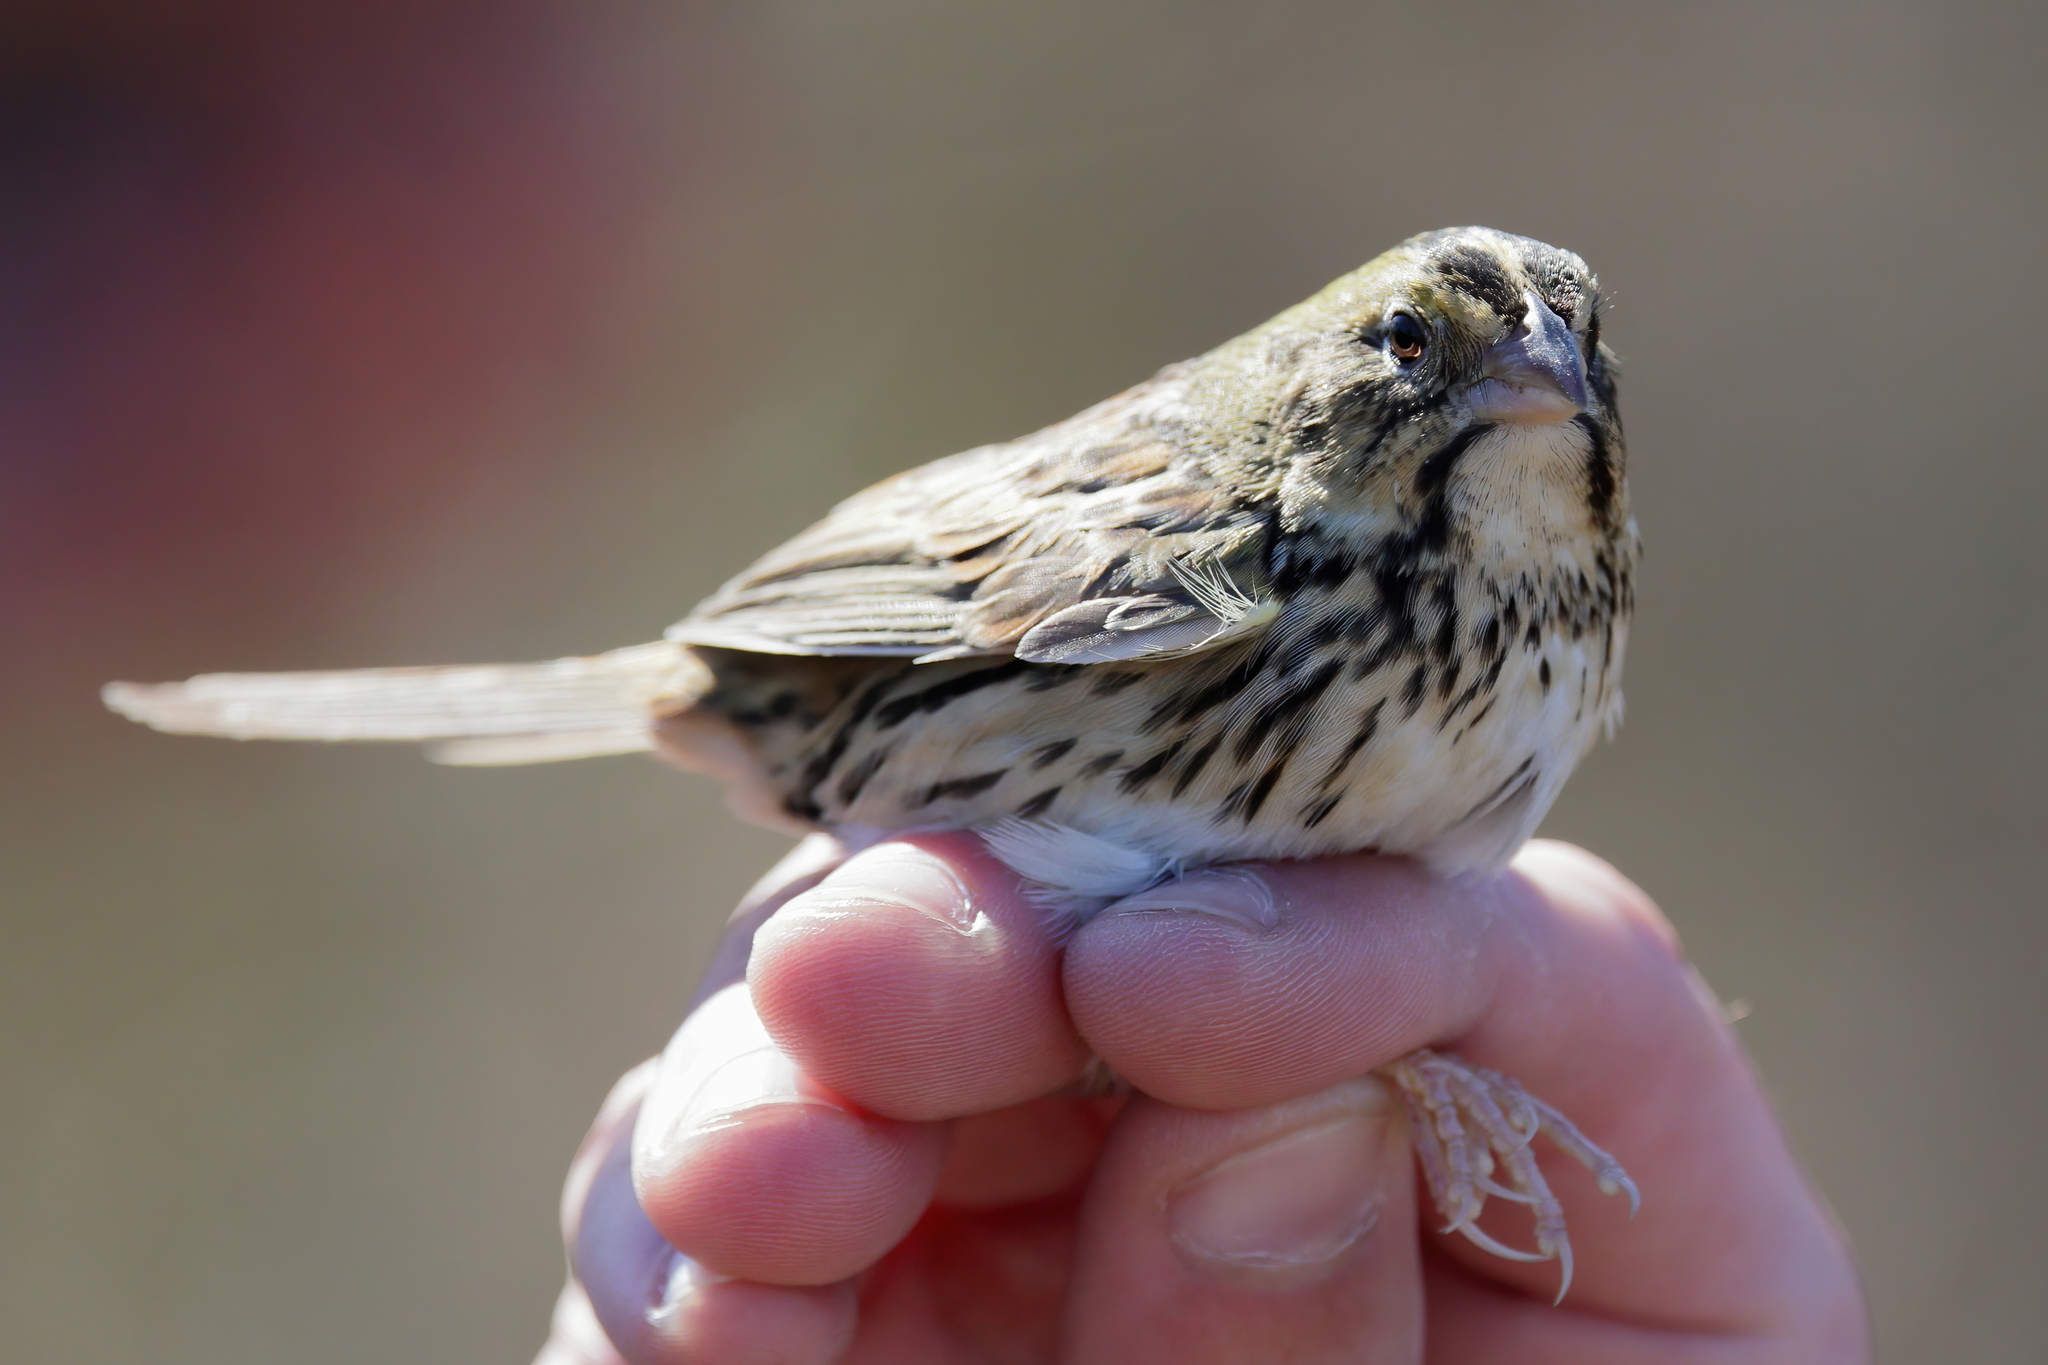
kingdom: Animalia
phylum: Chordata
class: Aves
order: Passeriformes
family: Passerellidae
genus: Centronyx
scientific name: Centronyx henslowii
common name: Henslow's sparrow
